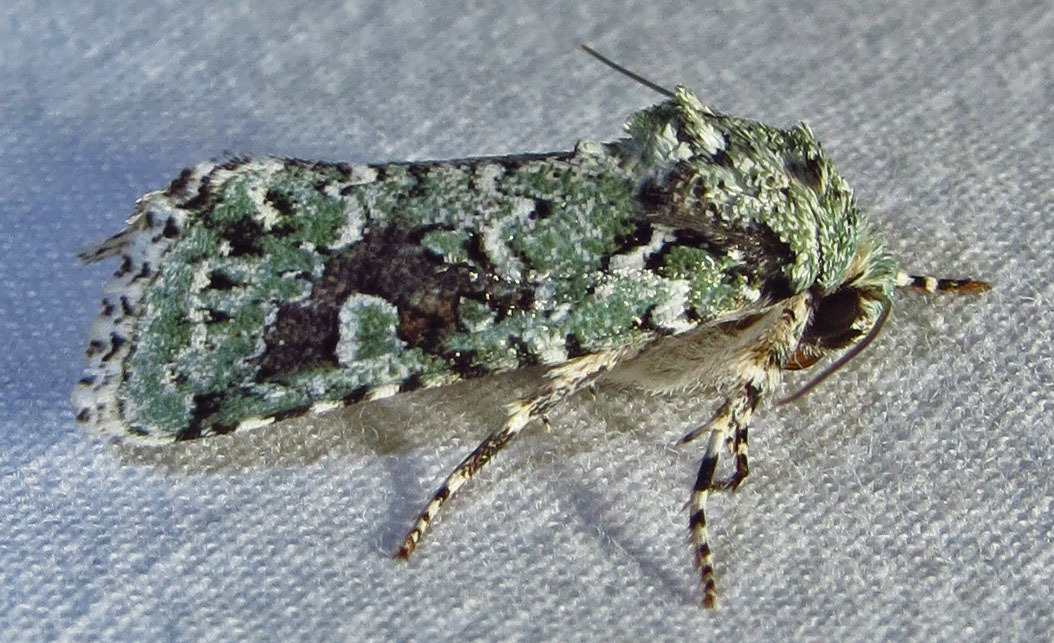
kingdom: Animalia
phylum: Arthropoda
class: Insecta
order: Lepidoptera
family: Noctuidae
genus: Lacinipolia
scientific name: Lacinipolia laudabilis
